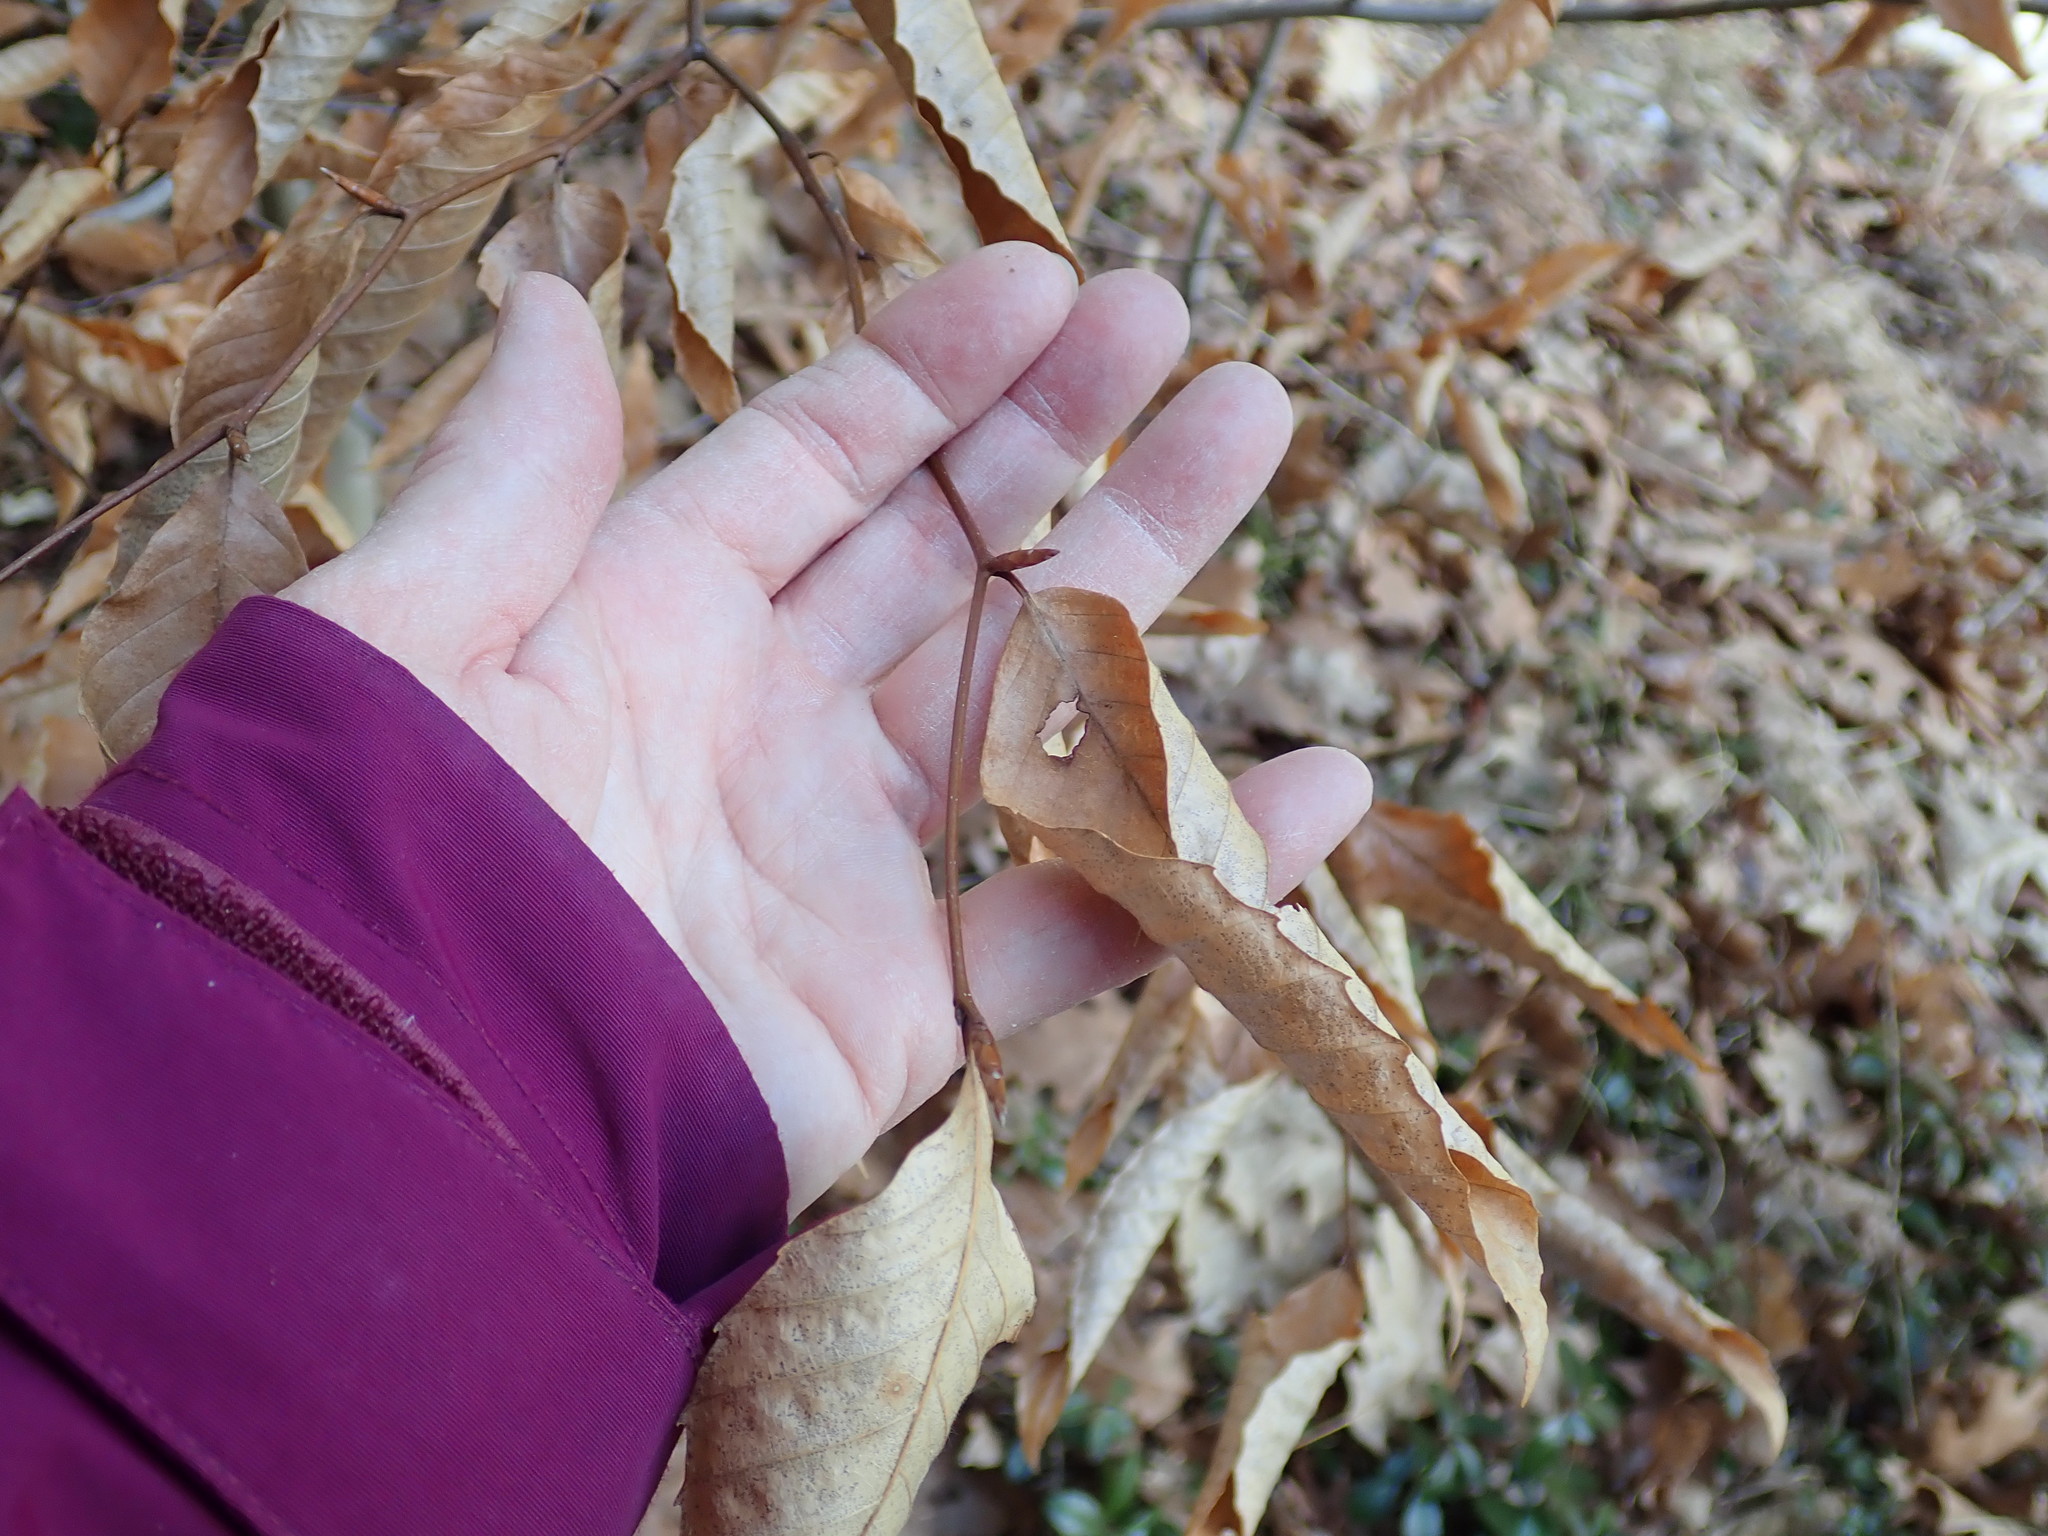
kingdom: Plantae
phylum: Tracheophyta
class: Magnoliopsida
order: Fagales
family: Fagaceae
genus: Fagus
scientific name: Fagus grandifolia
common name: American beech
